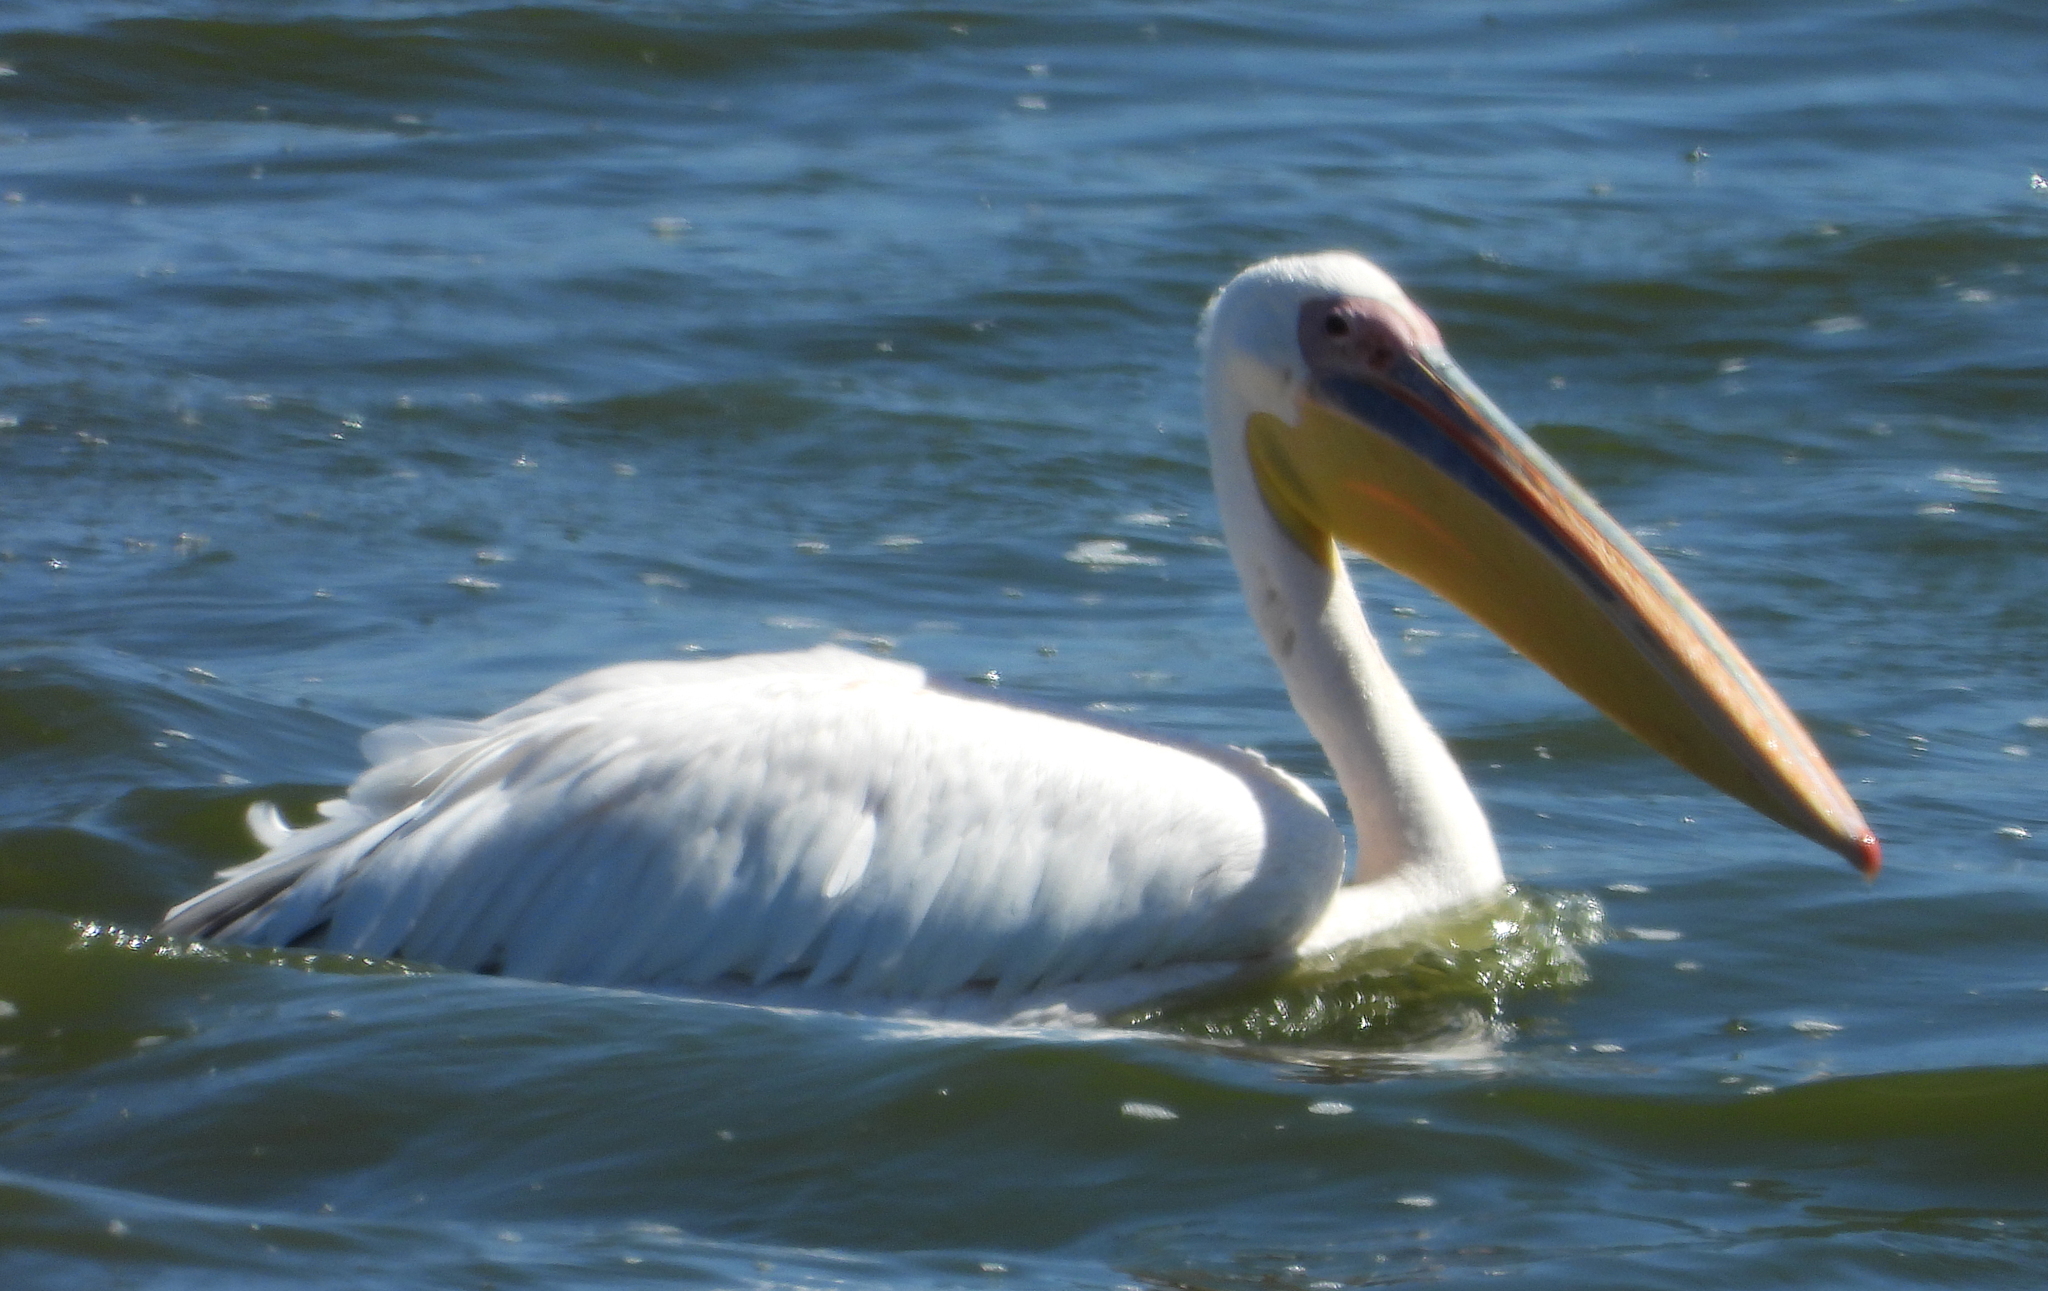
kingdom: Animalia
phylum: Chordata
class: Aves
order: Pelecaniformes
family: Pelecanidae
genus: Pelecanus
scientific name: Pelecanus onocrotalus
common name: Great white pelican
